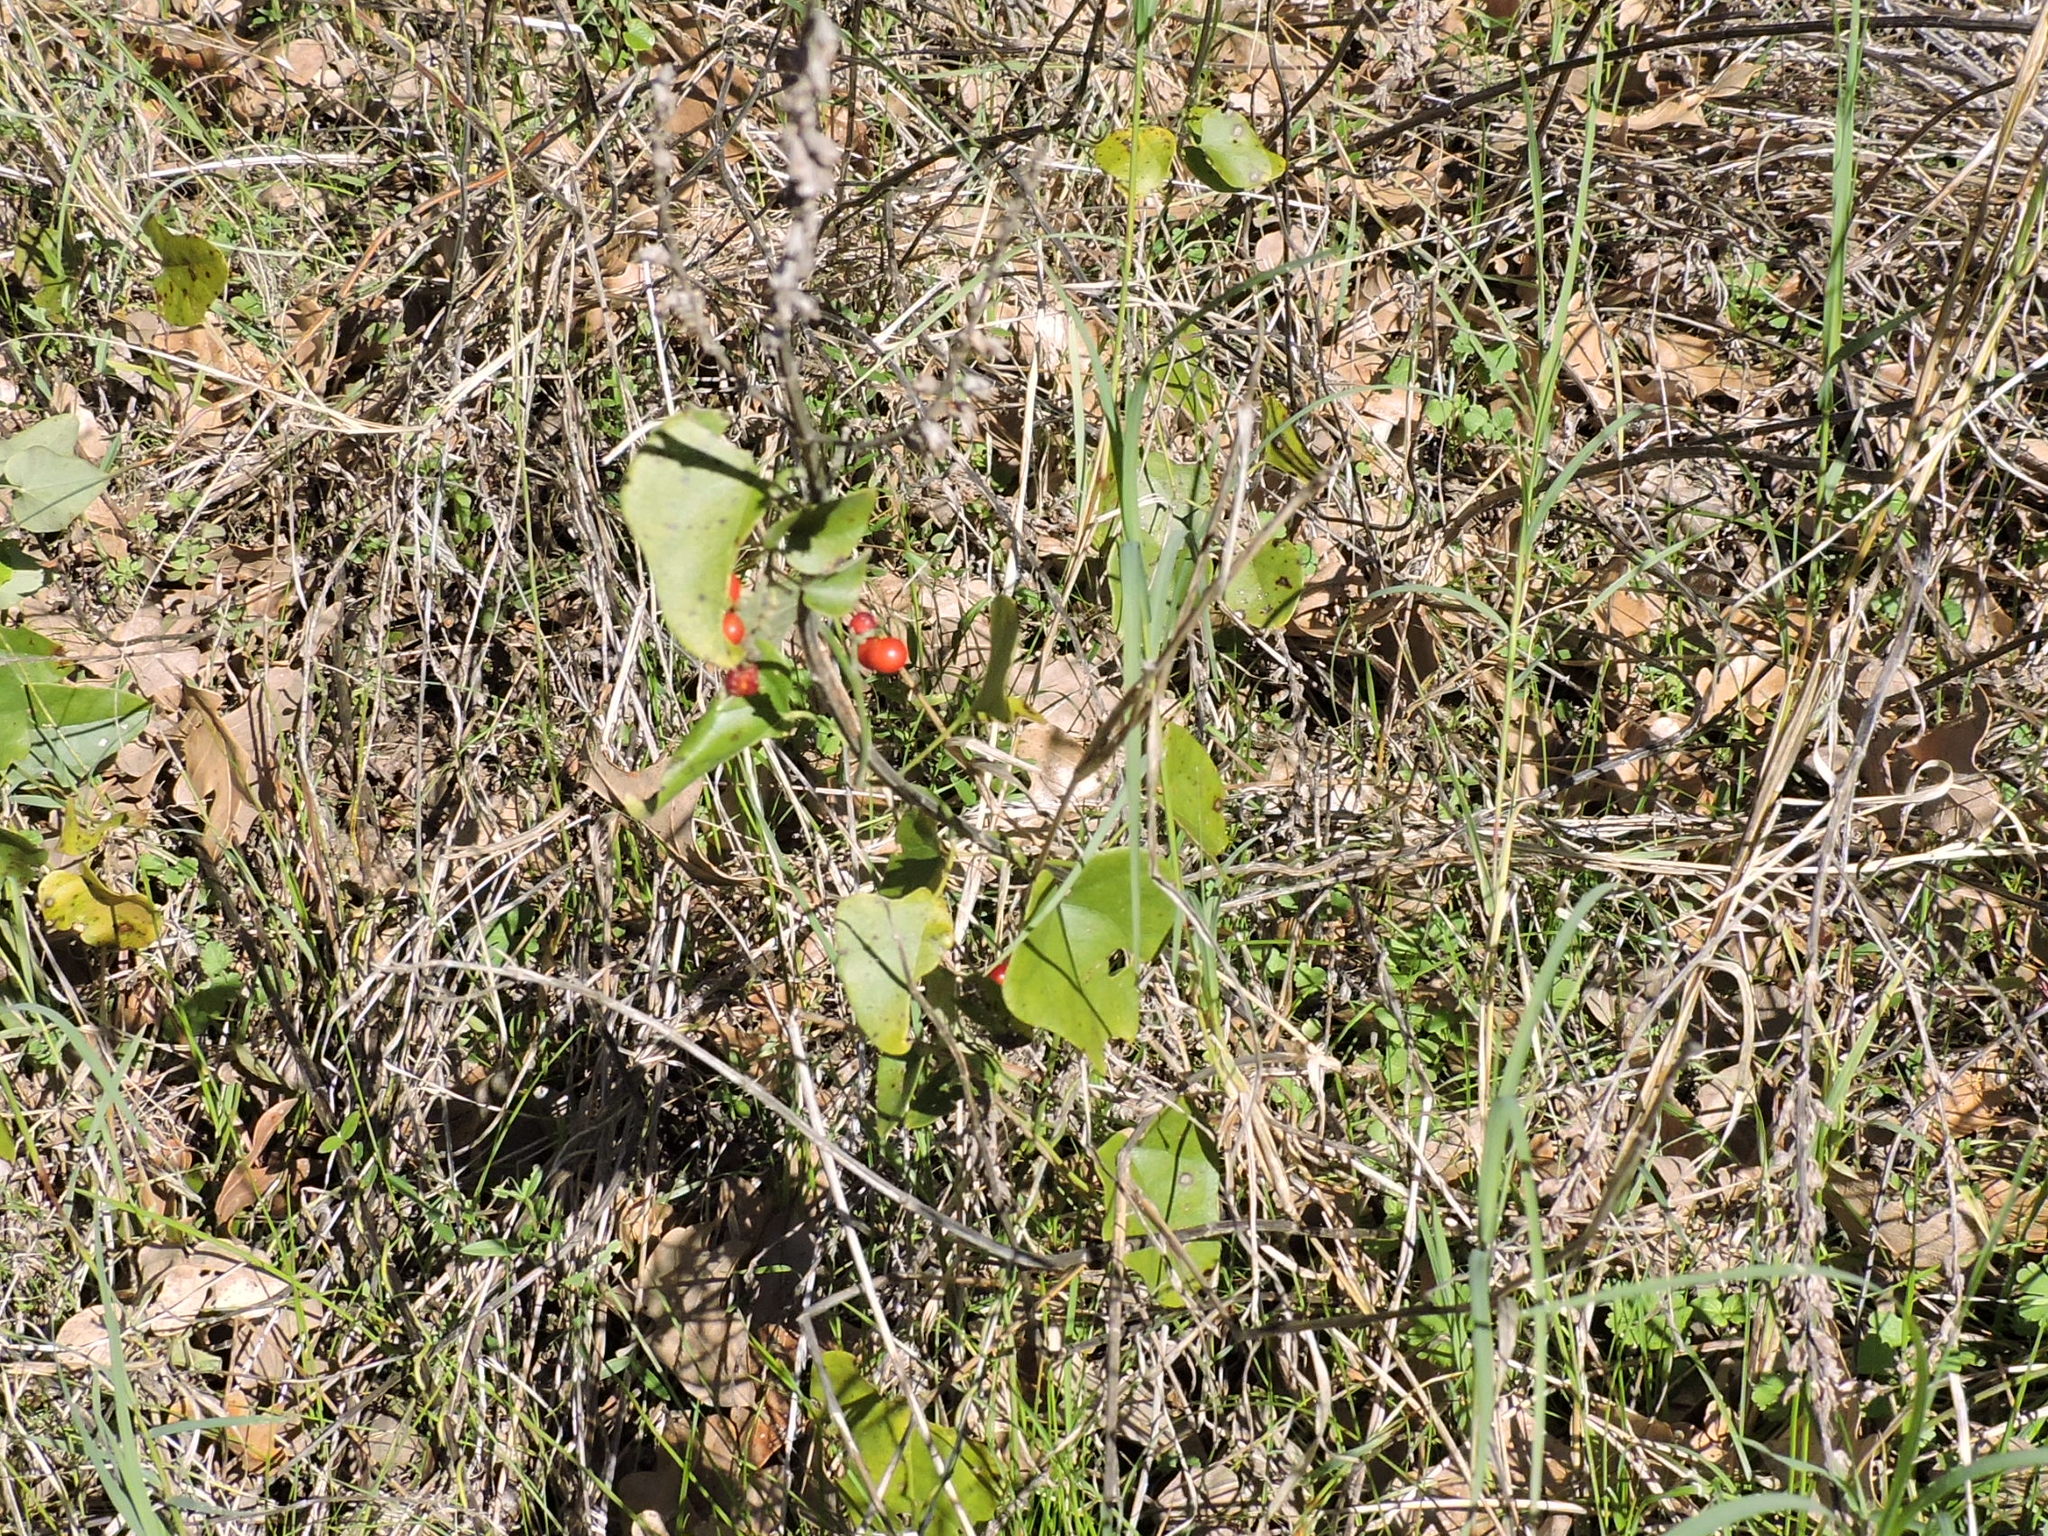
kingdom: Plantae
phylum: Tracheophyta
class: Magnoliopsida
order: Ranunculales
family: Menispermaceae
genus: Cocculus
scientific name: Cocculus carolinus
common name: Carolina moonseed
